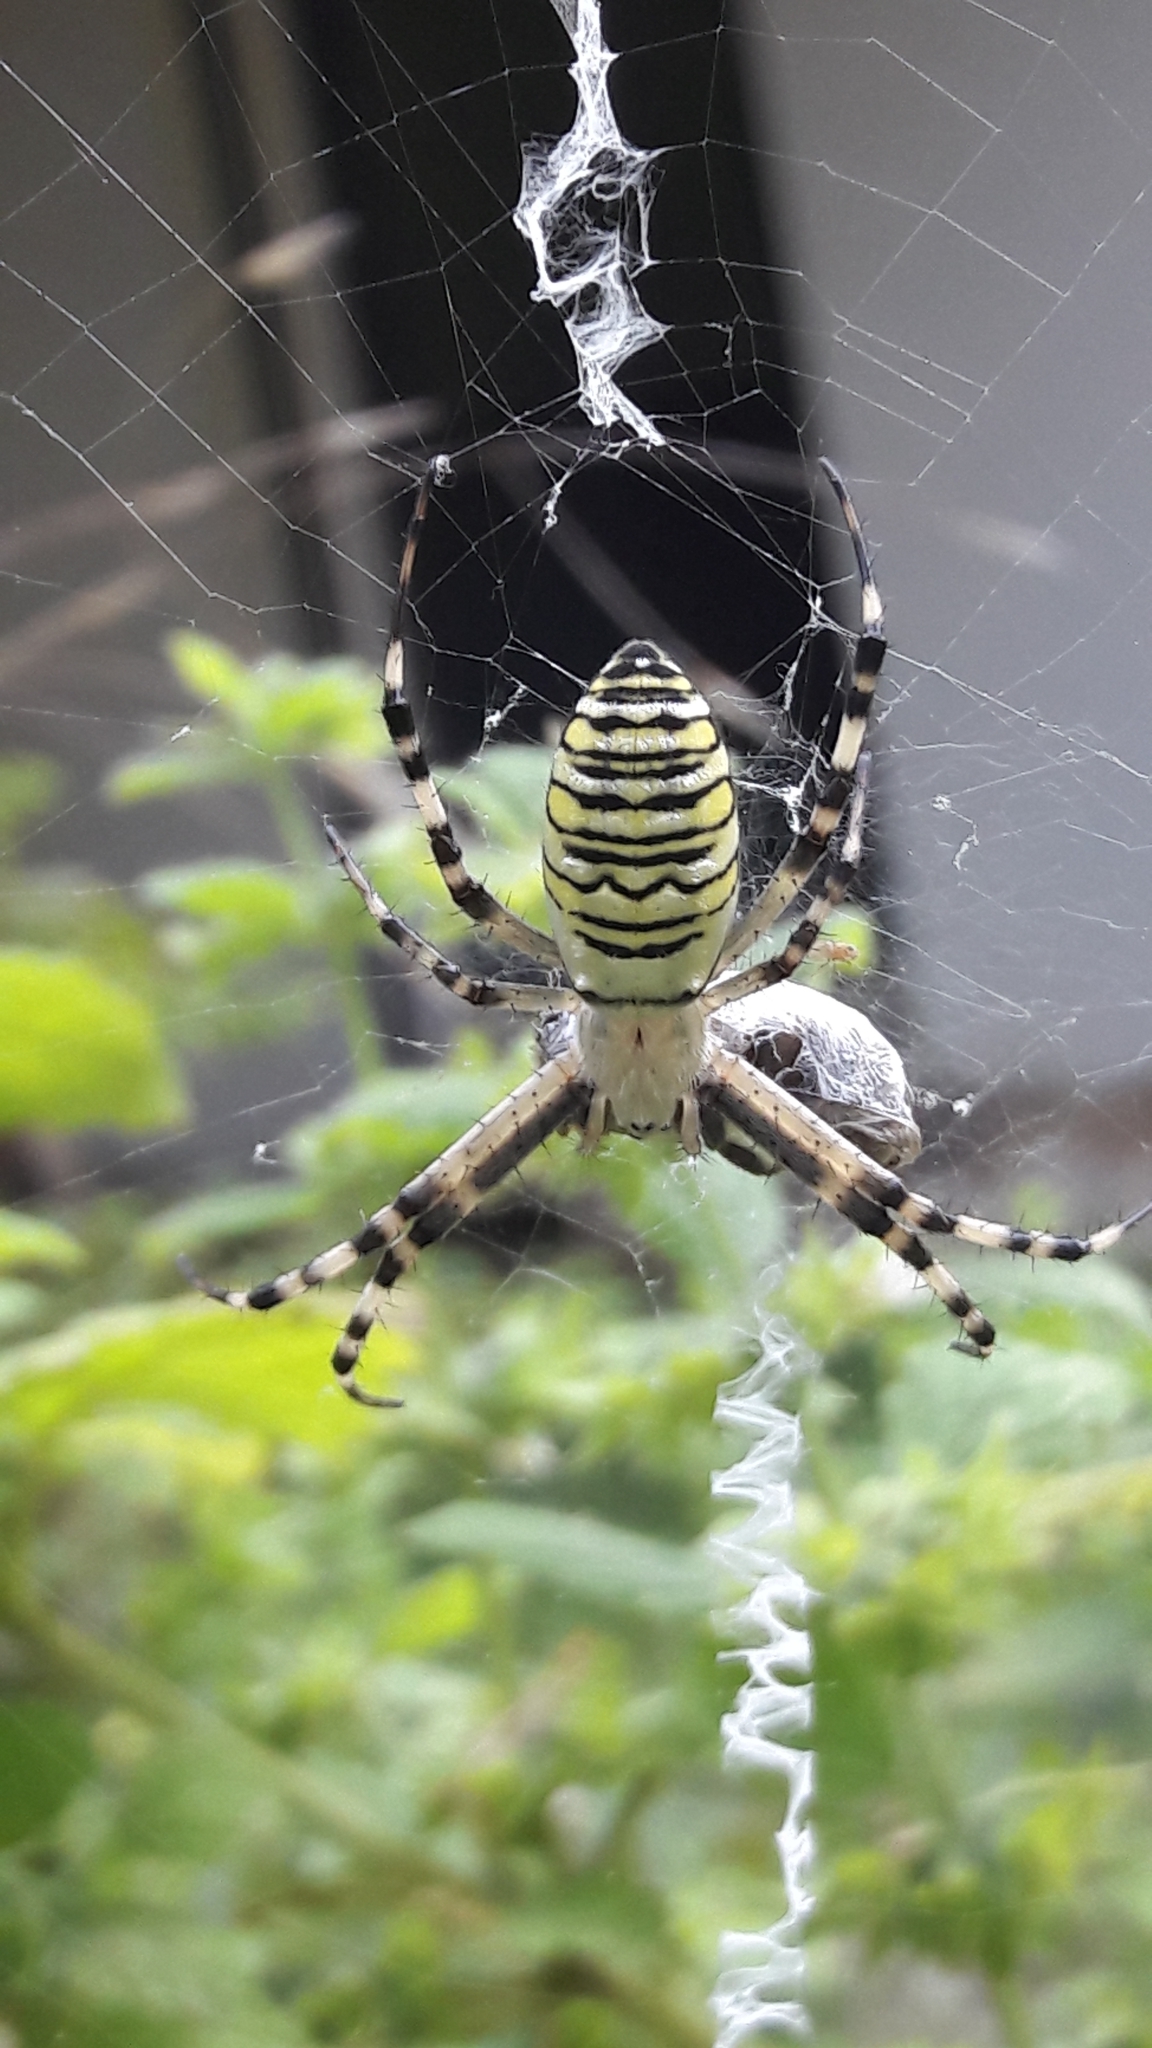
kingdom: Animalia
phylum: Arthropoda
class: Arachnida
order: Araneae
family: Araneidae
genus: Argiope
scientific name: Argiope bruennichi
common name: Wasp spider
